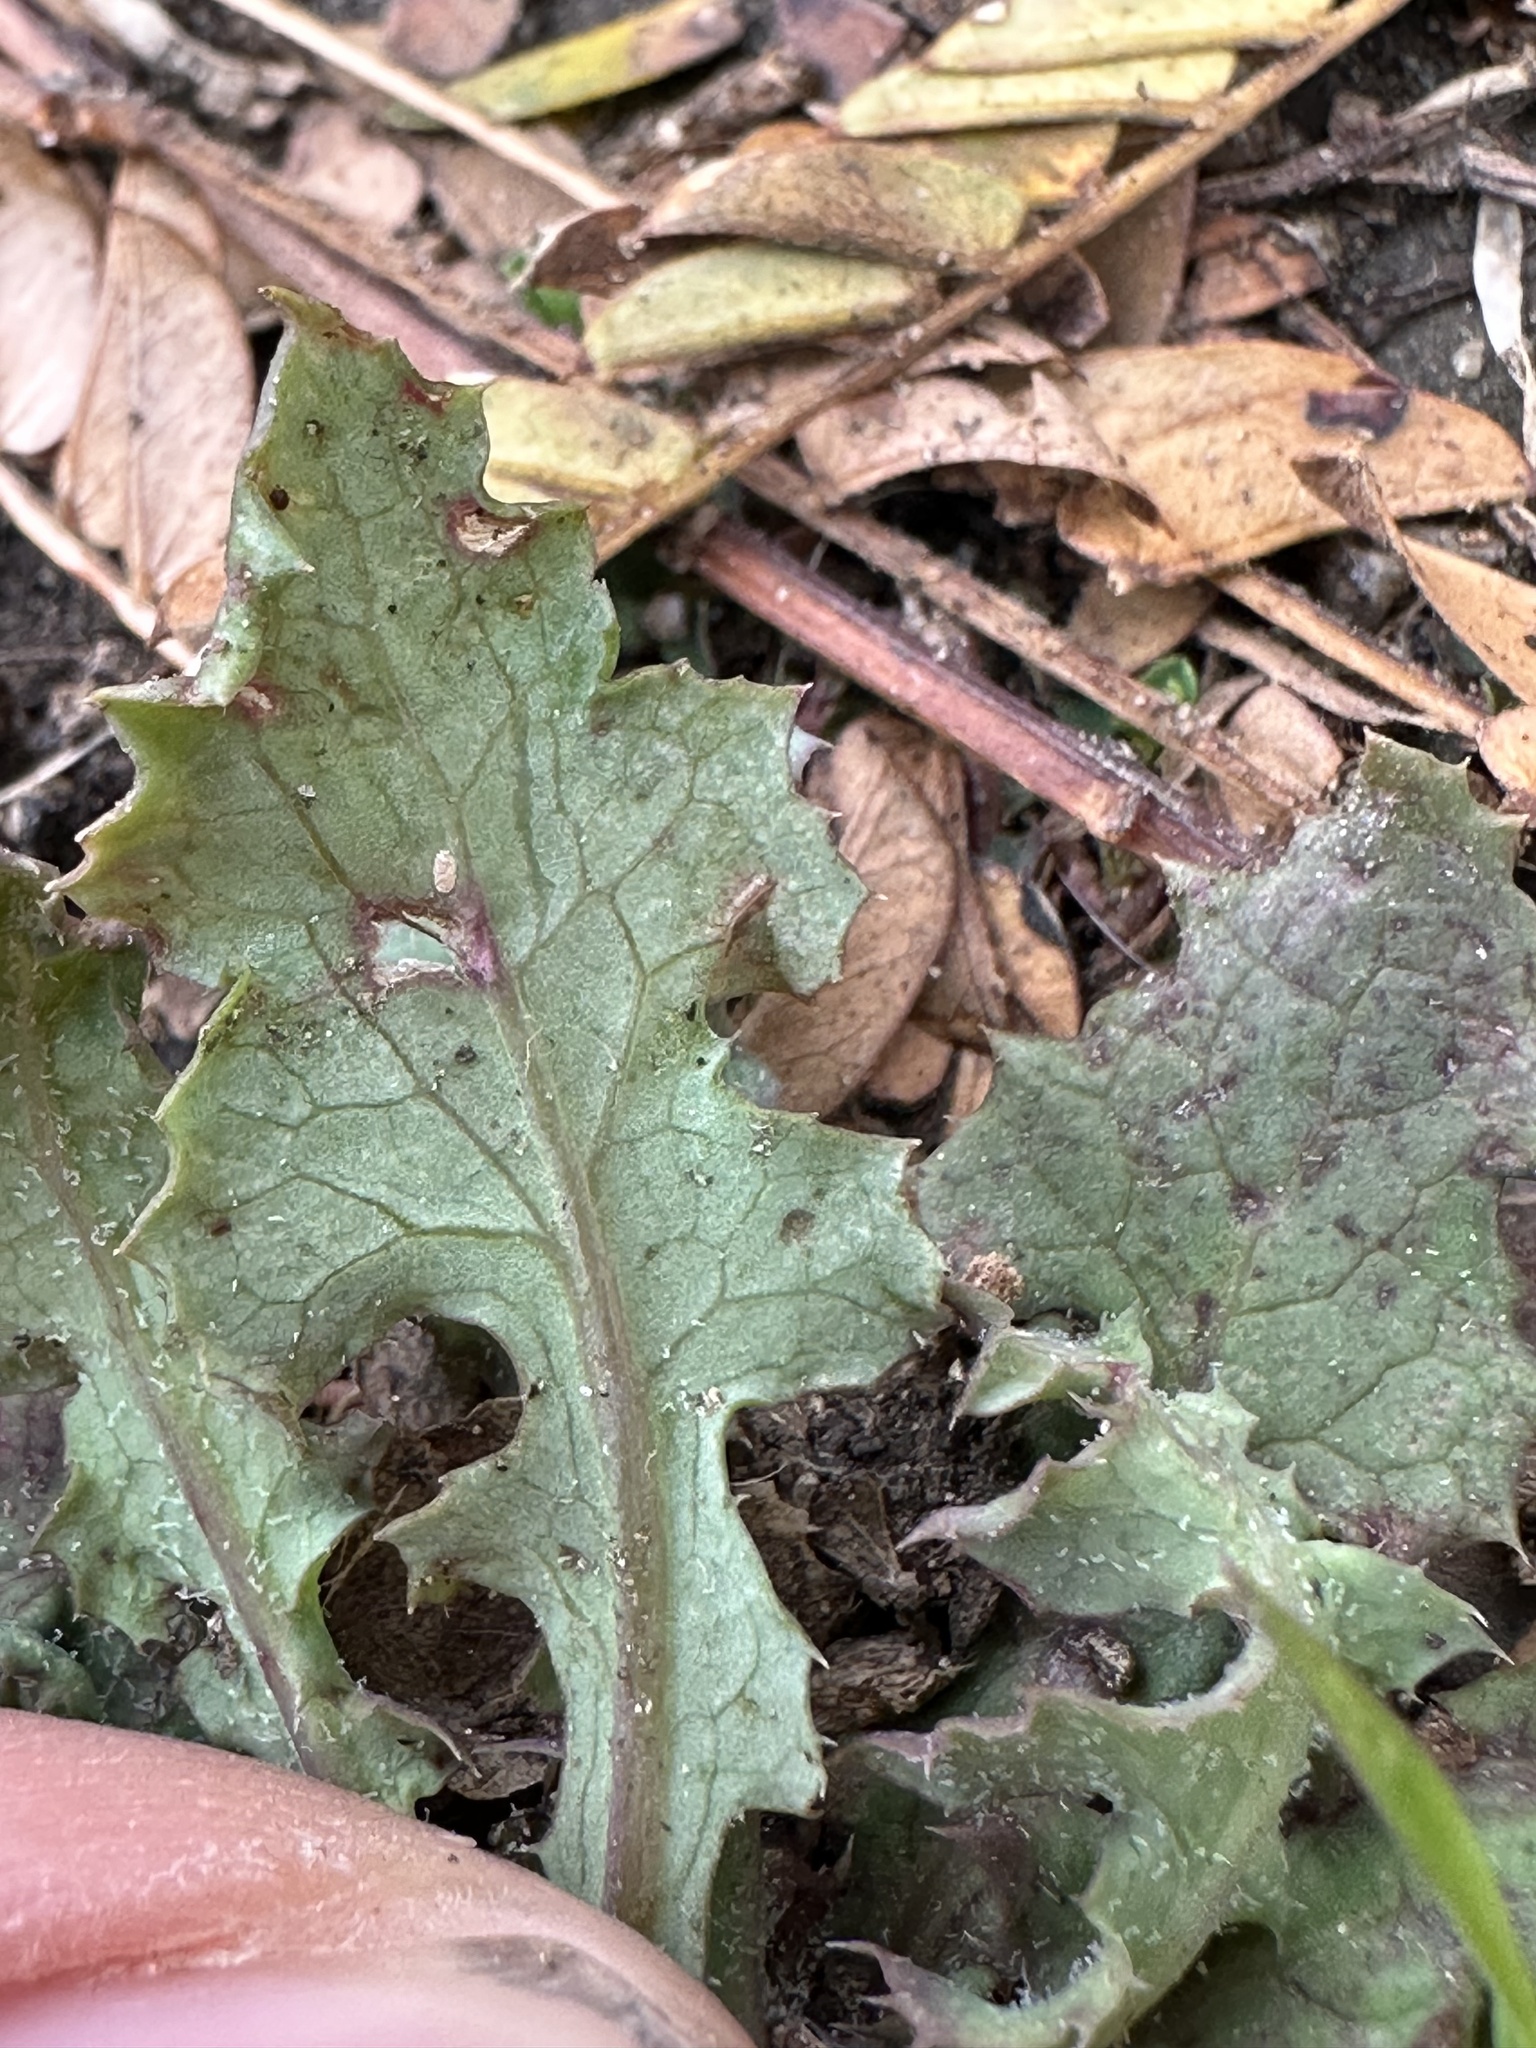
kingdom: Plantae
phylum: Tracheophyta
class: Magnoliopsida
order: Asterales
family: Asteraceae
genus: Hypochaeris
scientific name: Hypochaeris glabra
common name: Smooth catsear
